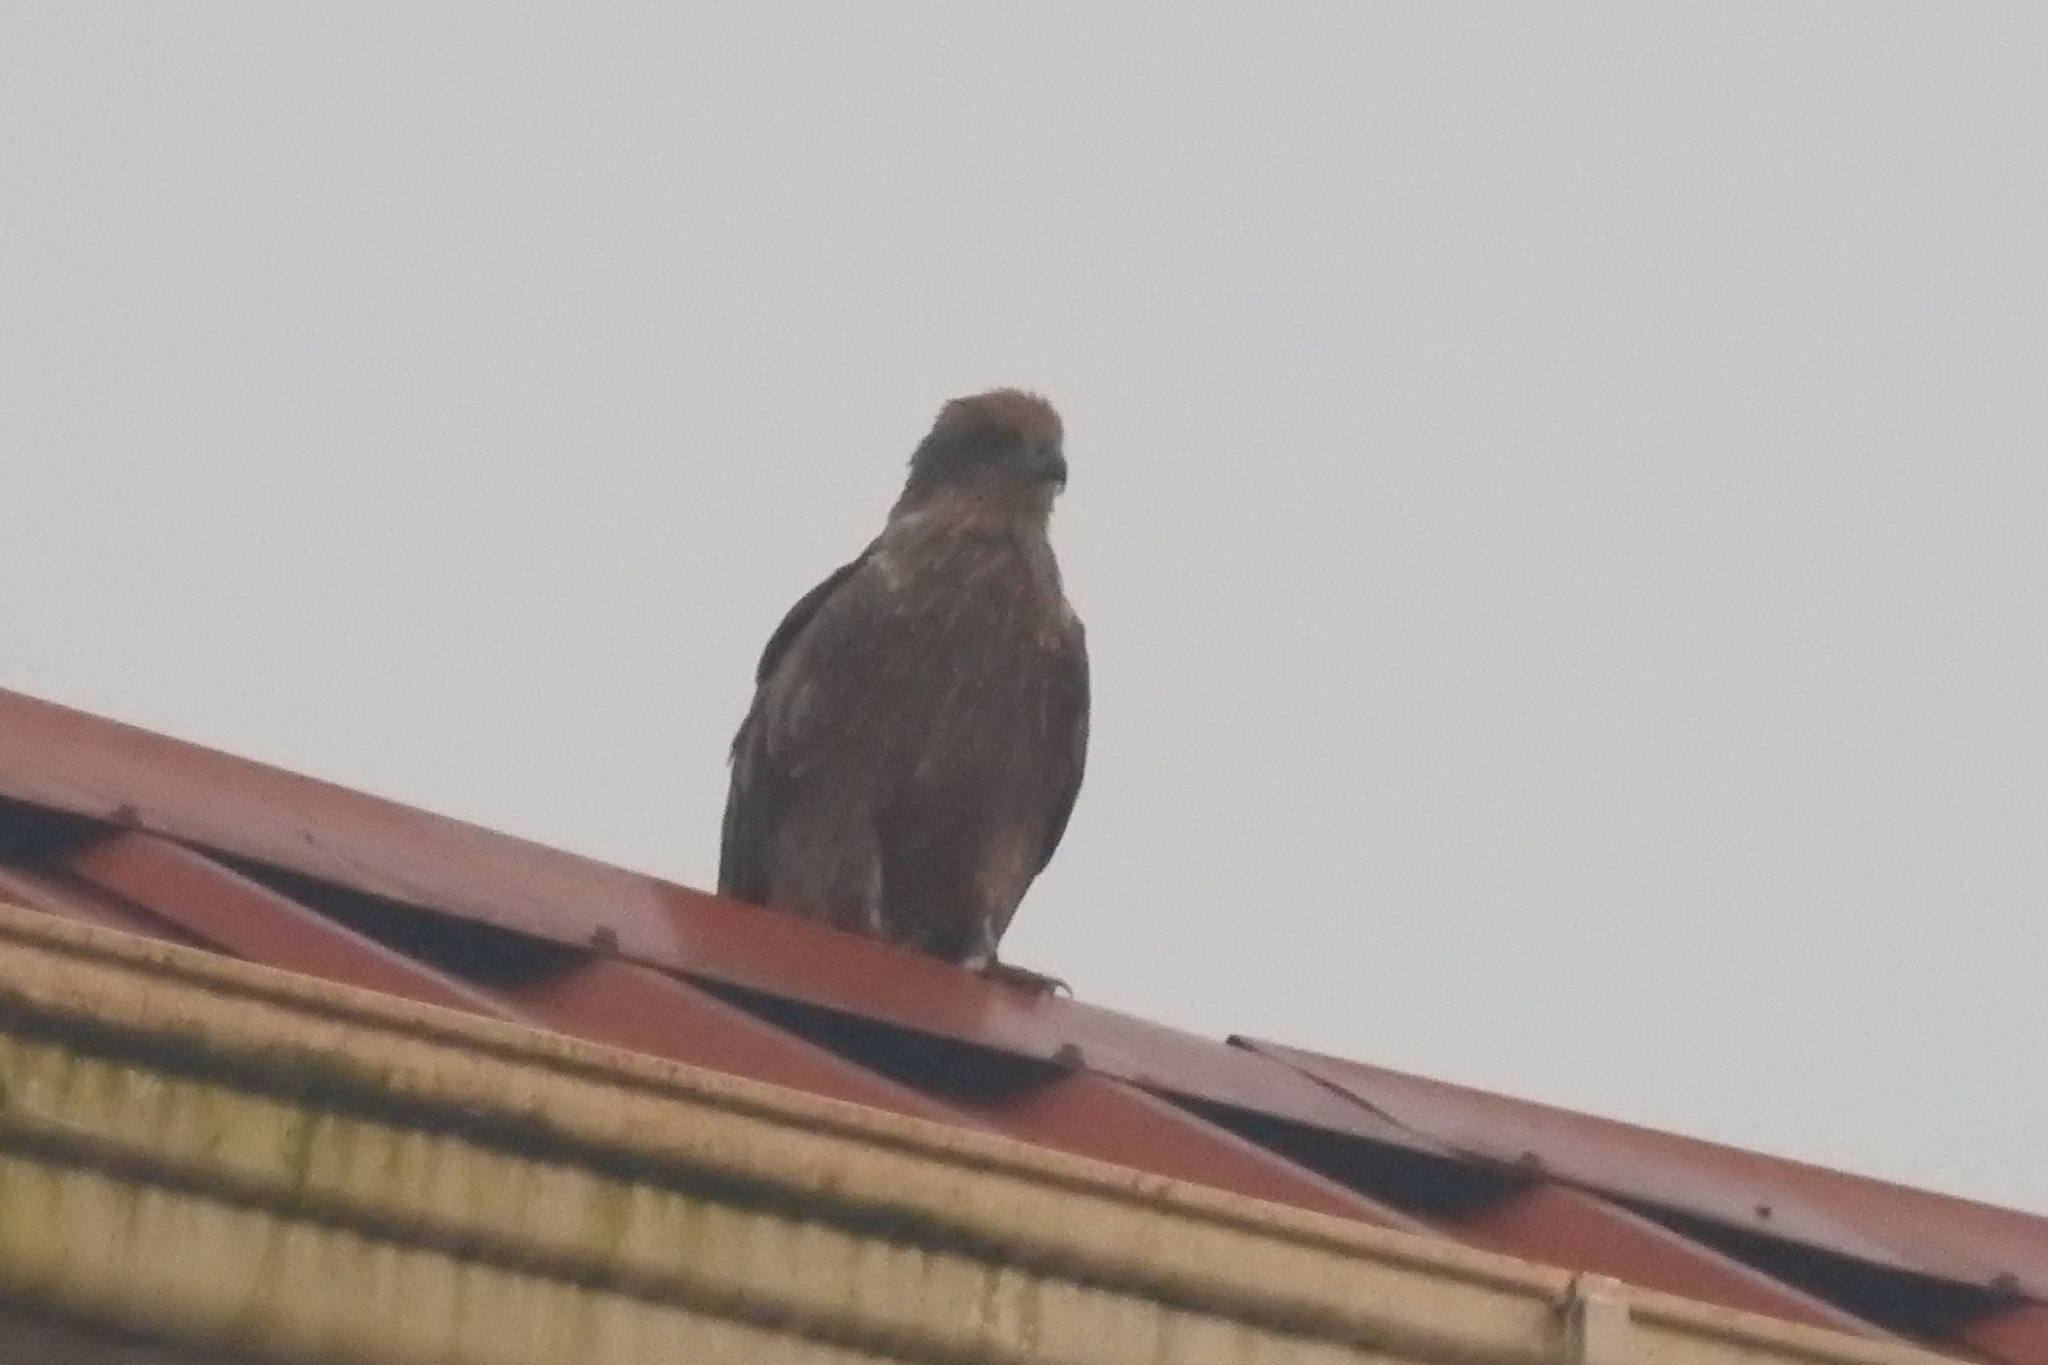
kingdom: Animalia
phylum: Chordata
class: Aves
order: Accipitriformes
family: Accipitridae
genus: Milvus
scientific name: Milvus migrans
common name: Black kite
